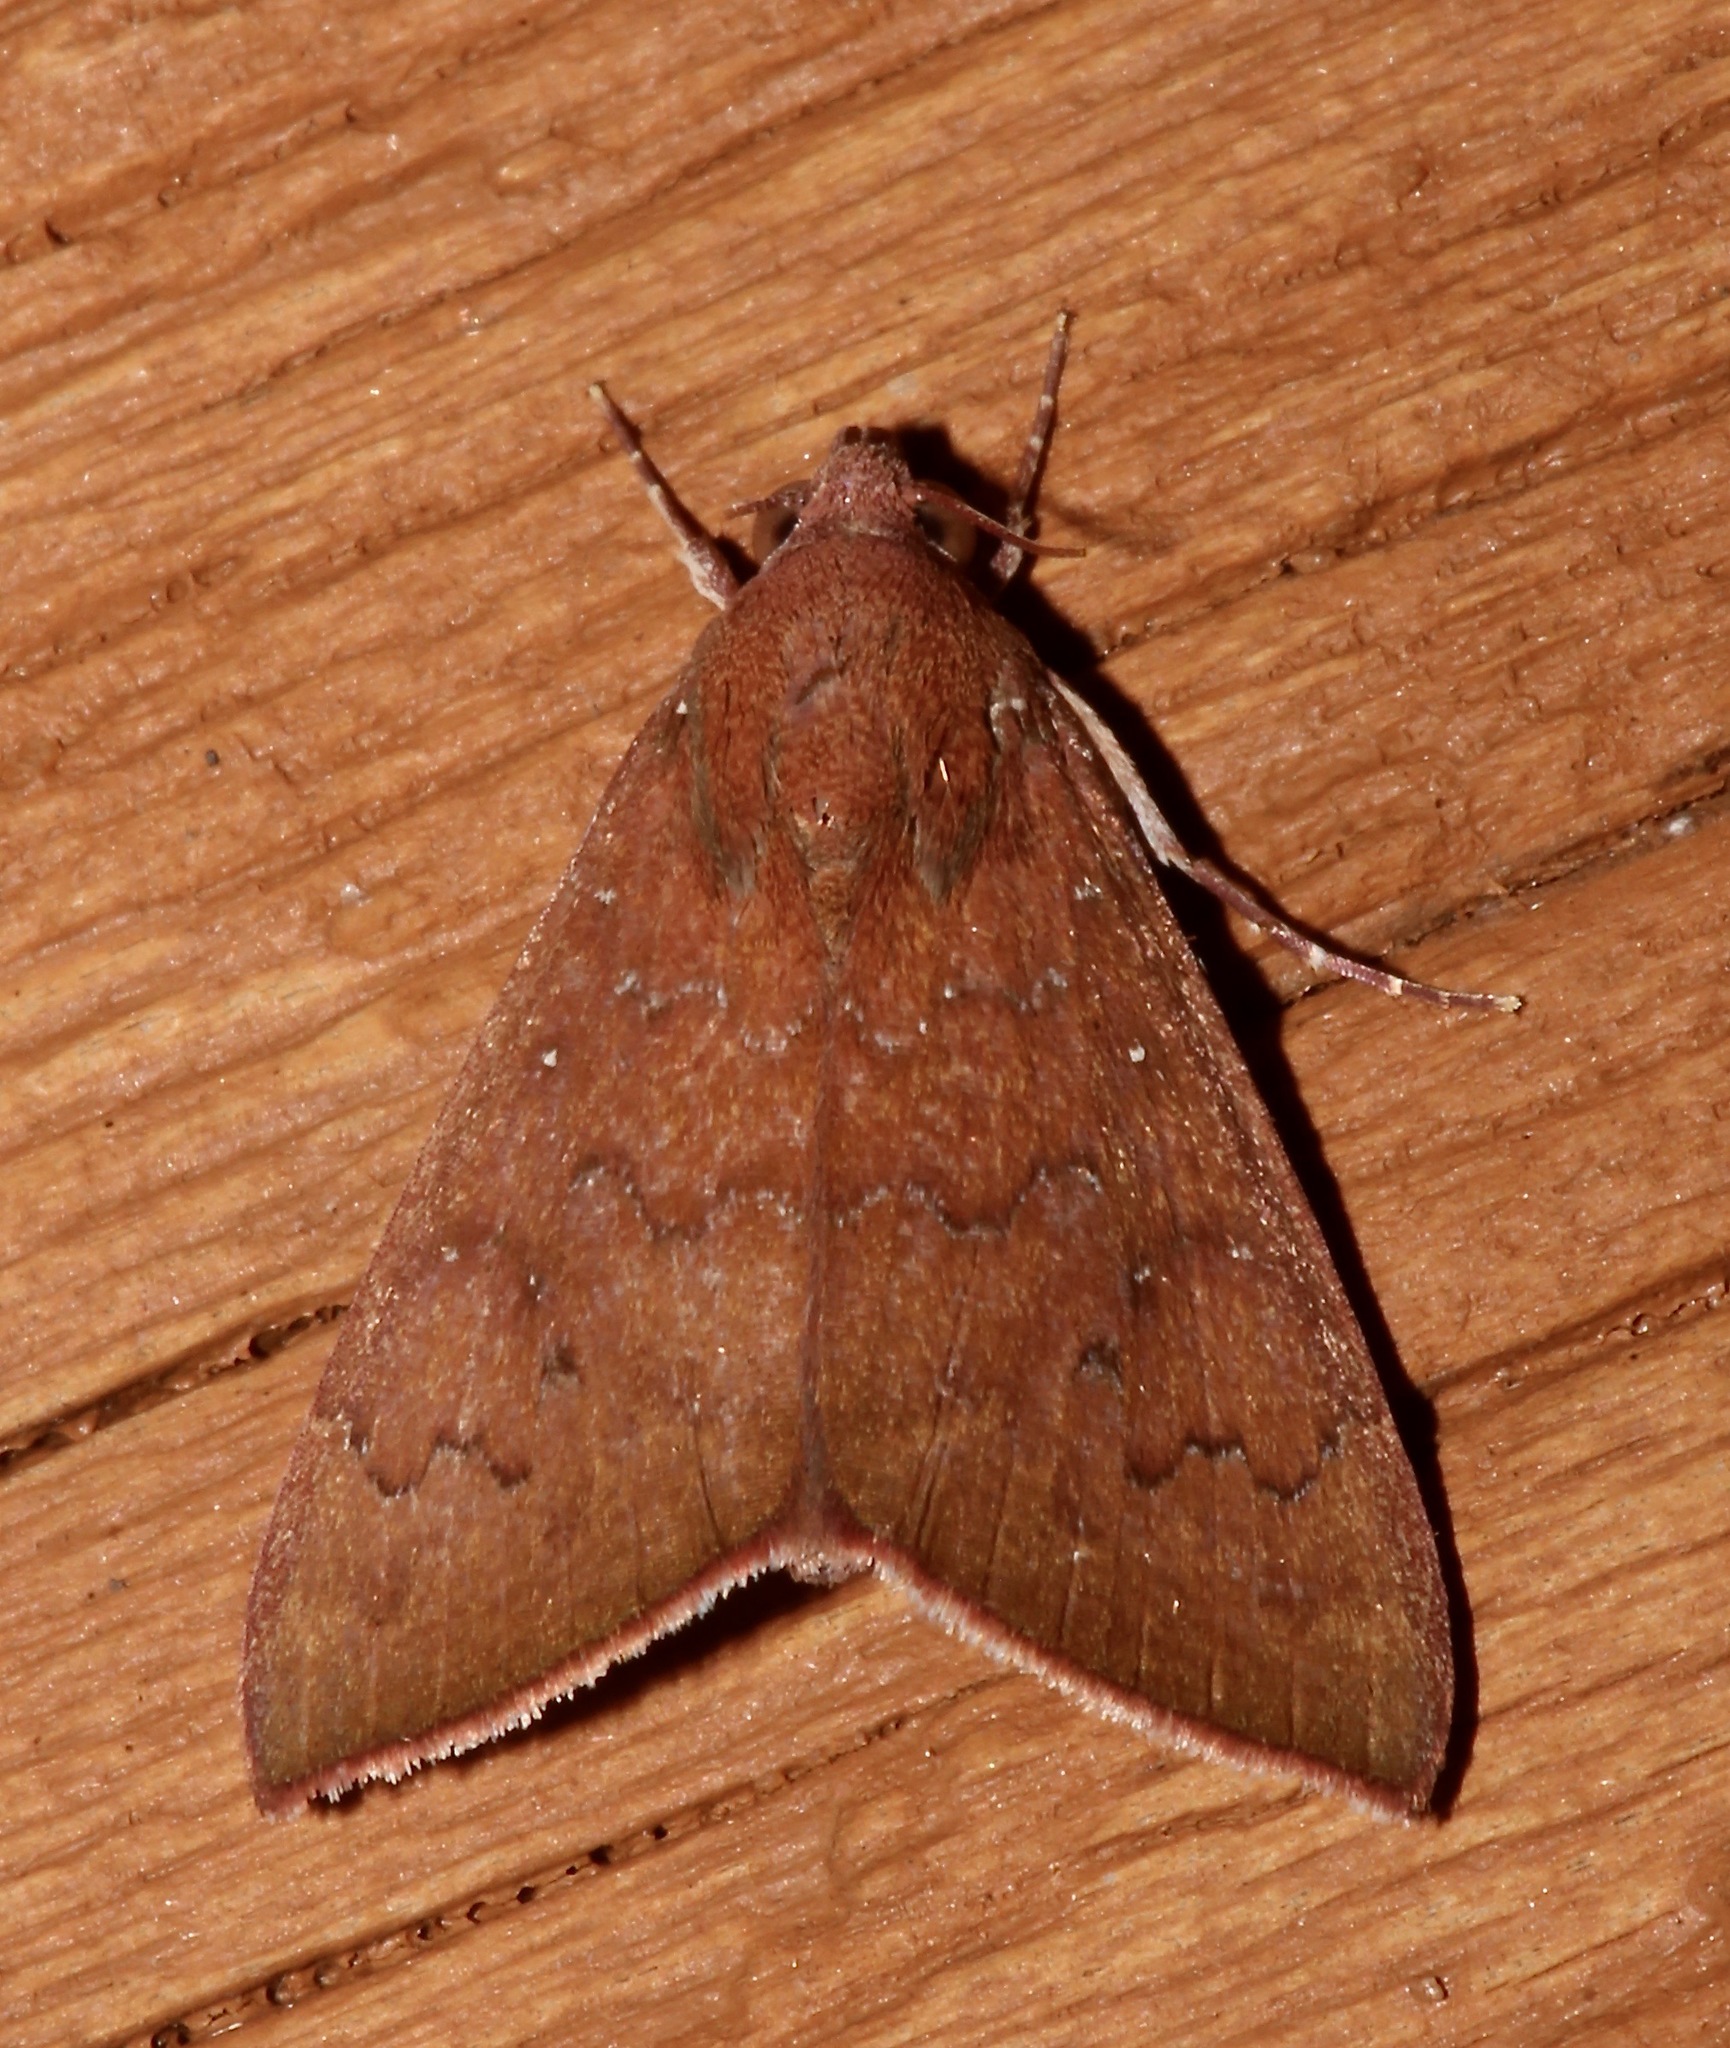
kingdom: Animalia
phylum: Arthropoda
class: Insecta
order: Lepidoptera
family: Erebidae
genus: Anomis
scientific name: Anomis illita
